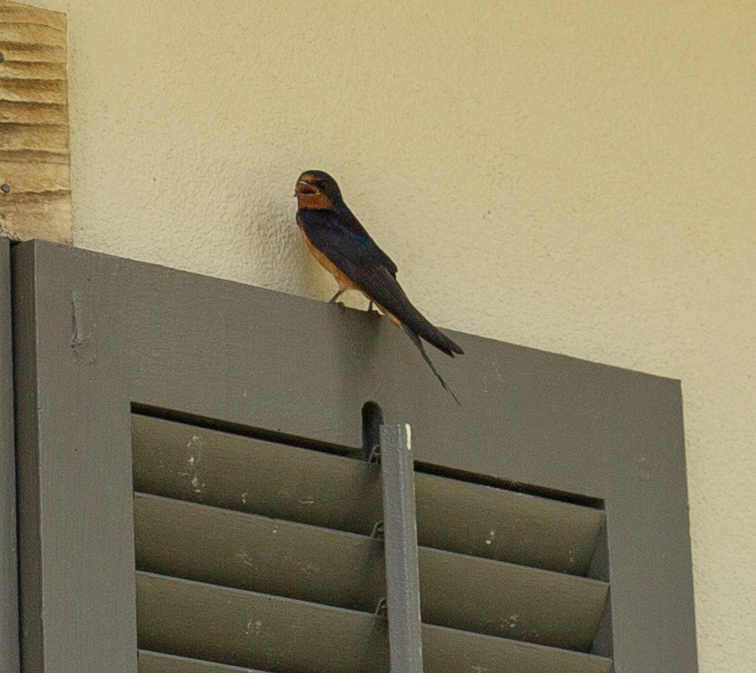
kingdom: Animalia
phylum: Chordata
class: Aves
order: Passeriformes
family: Hirundinidae
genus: Hirundo
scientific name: Hirundo rustica
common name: Barn swallow
